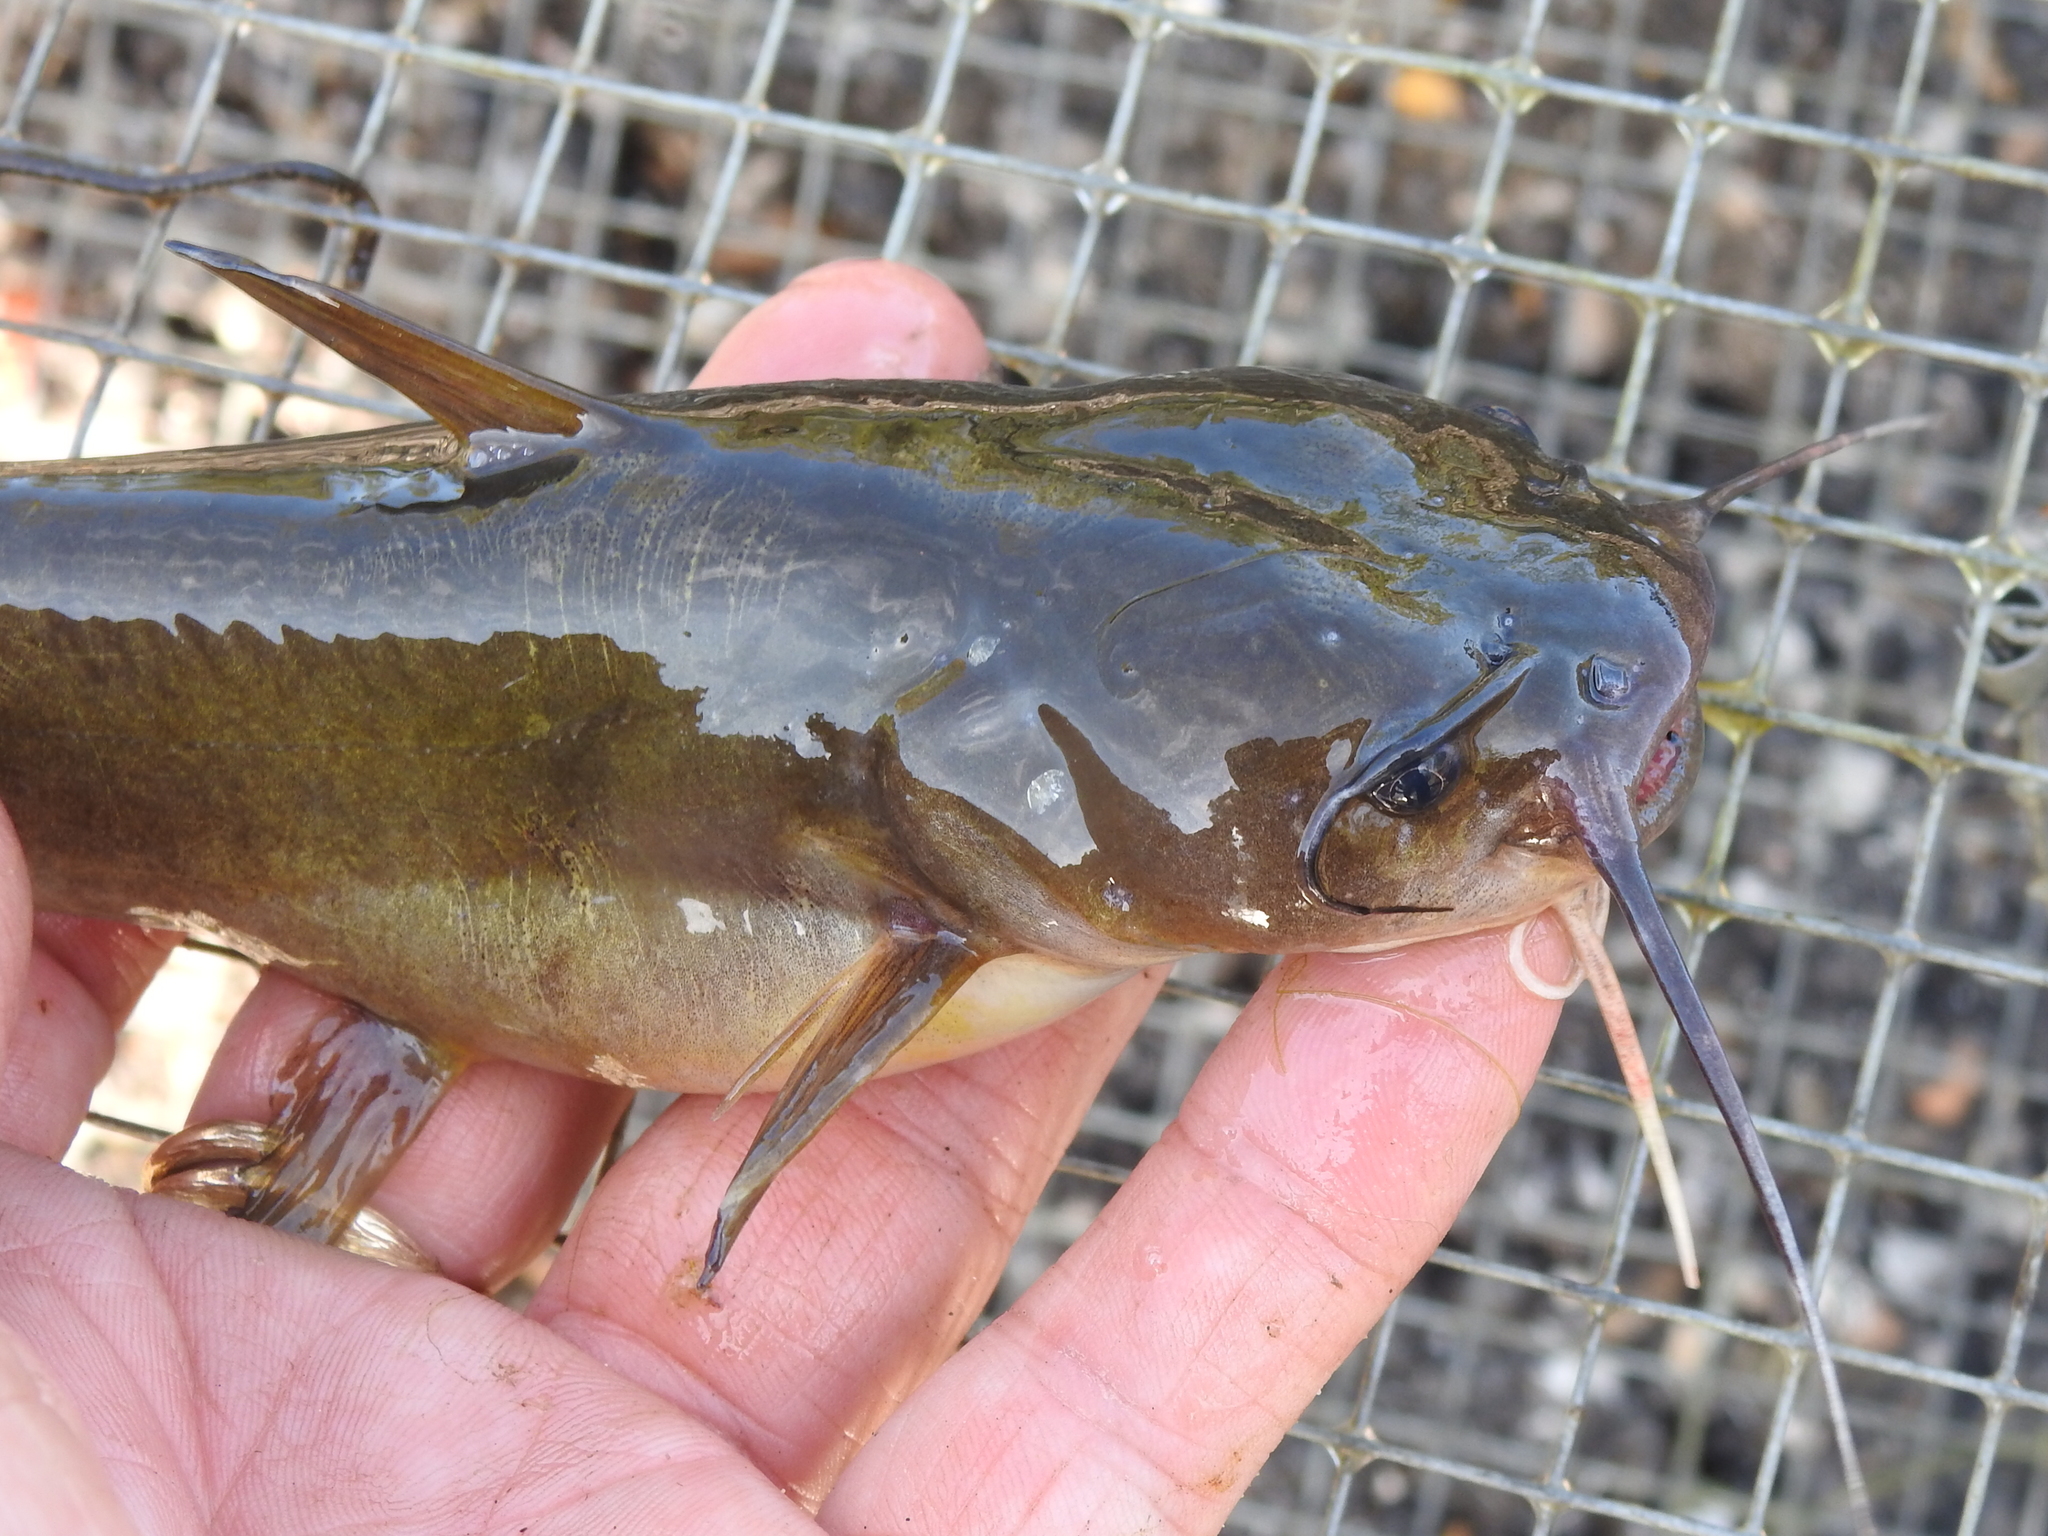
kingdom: Animalia
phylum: Chordata
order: Siluriformes
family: Ictaluridae
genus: Ameiurus
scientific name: Ameiurus natalis
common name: Yellow bullhead
